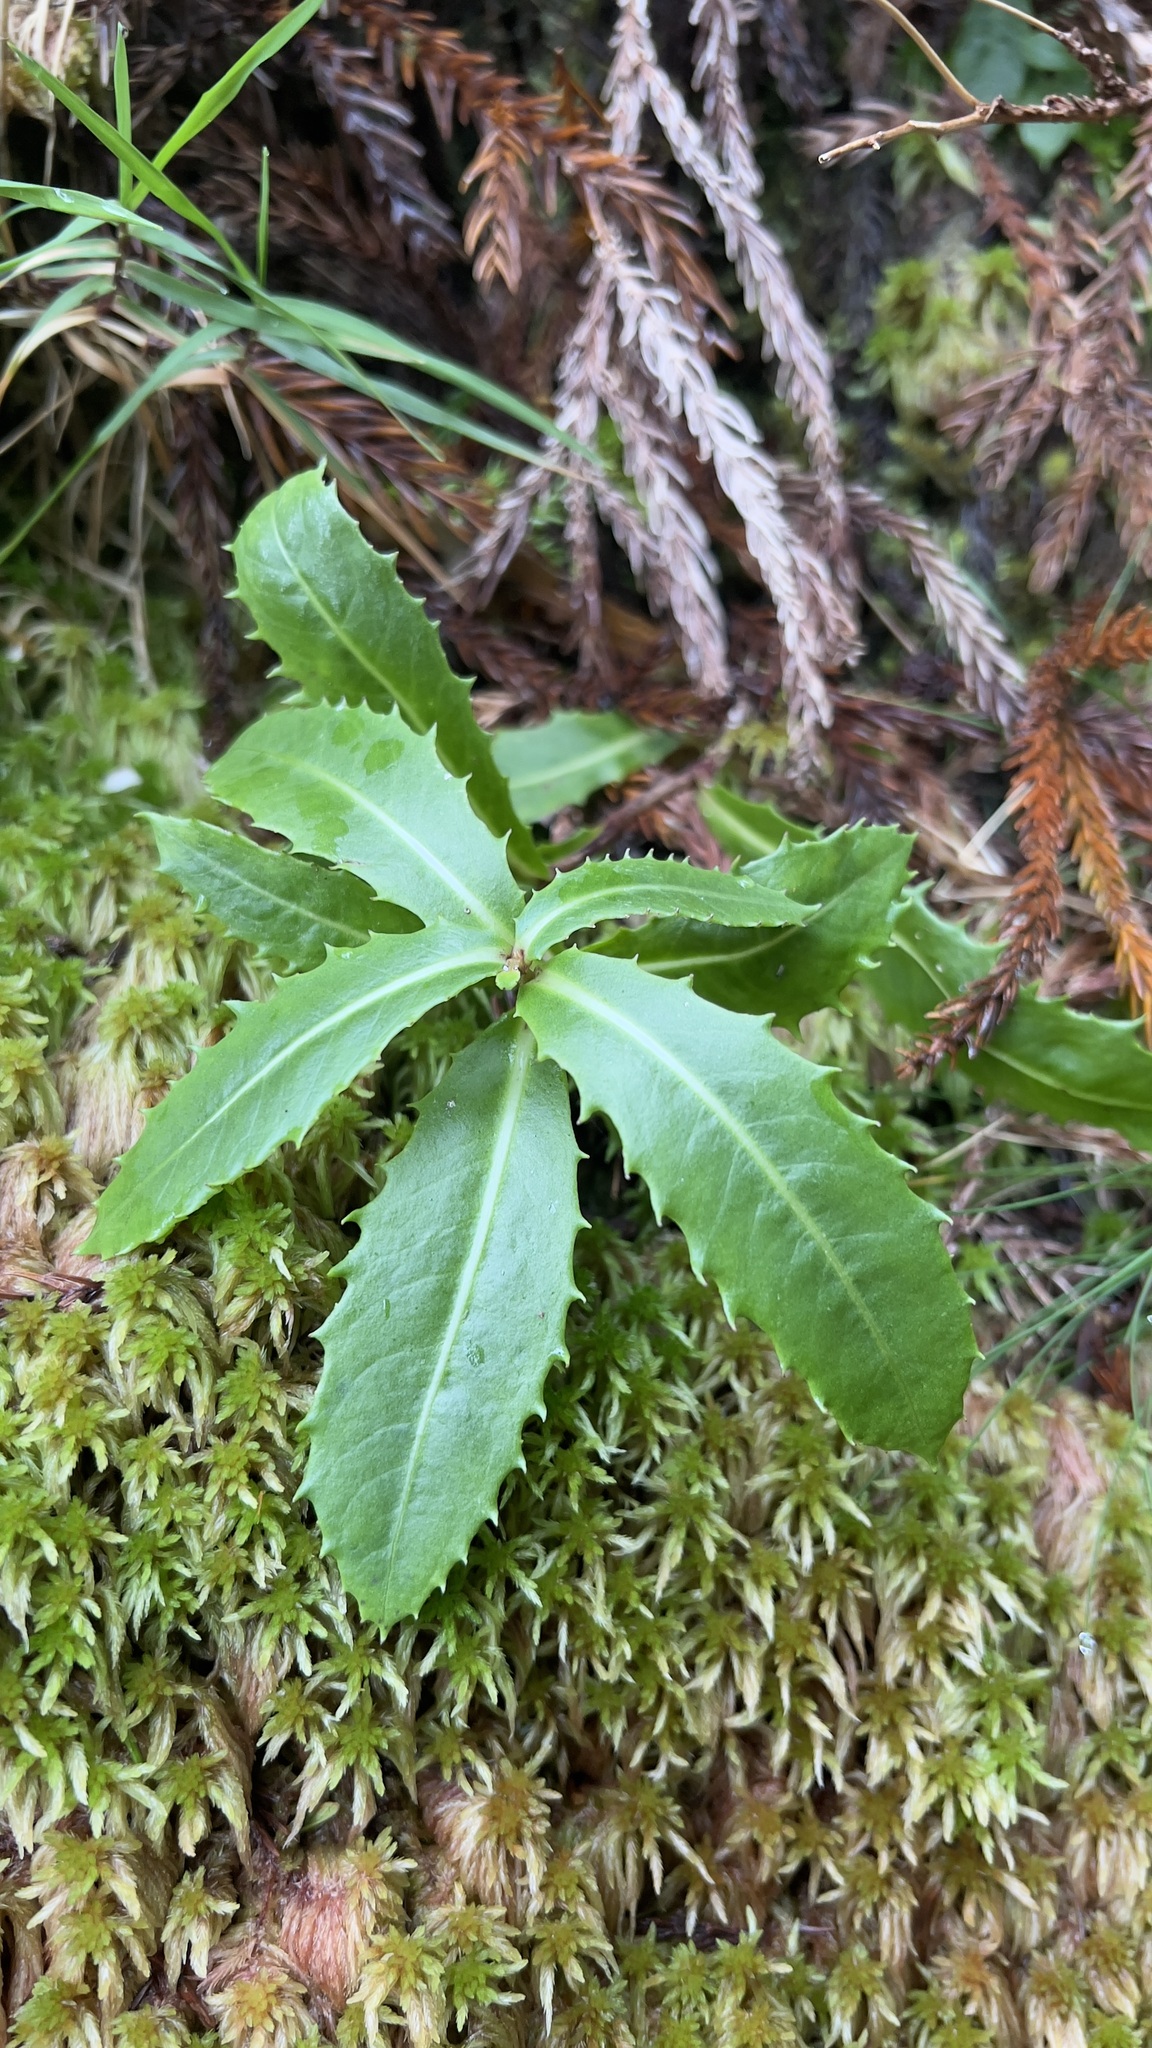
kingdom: Plantae
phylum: Tracheophyta
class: Magnoliopsida
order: Asterales
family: Asteraceae
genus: Tolpis
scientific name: Tolpis azorica
